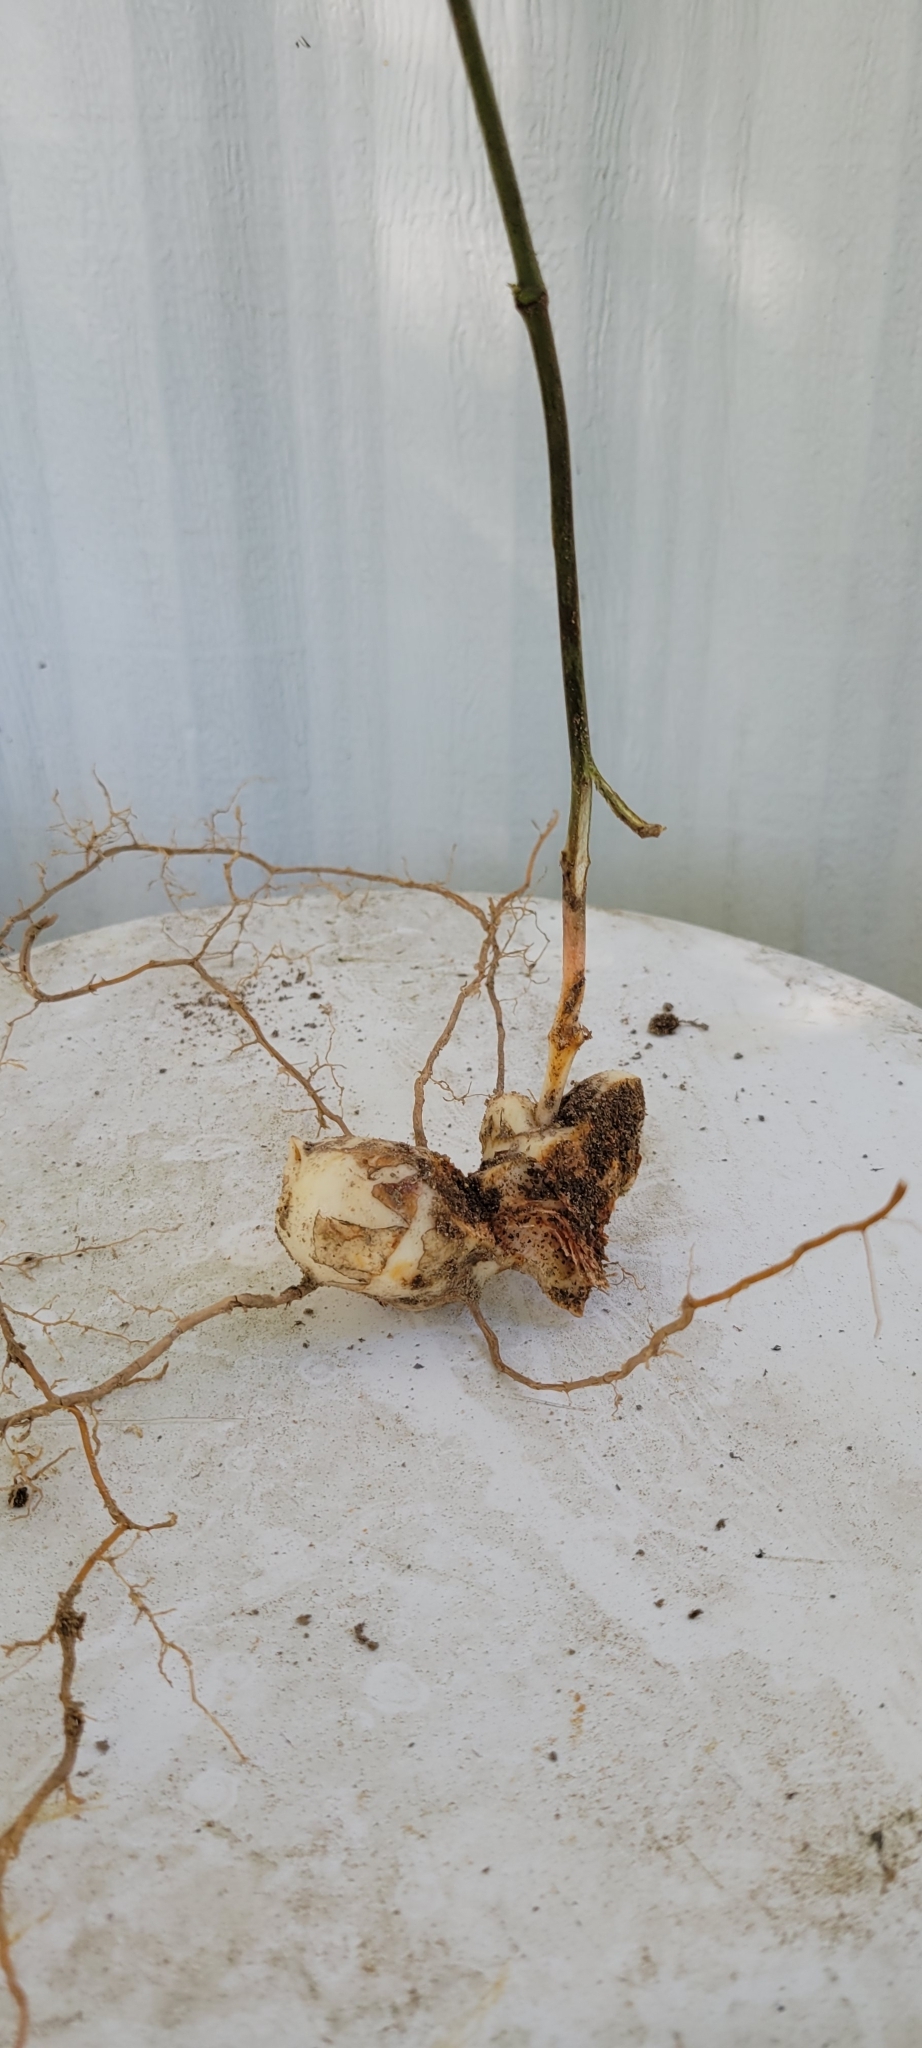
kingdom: Plantae
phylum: Tracheophyta
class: Liliopsida
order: Liliales
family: Smilacaceae
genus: Smilax
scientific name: Smilax glauca
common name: Cat greenbrier
